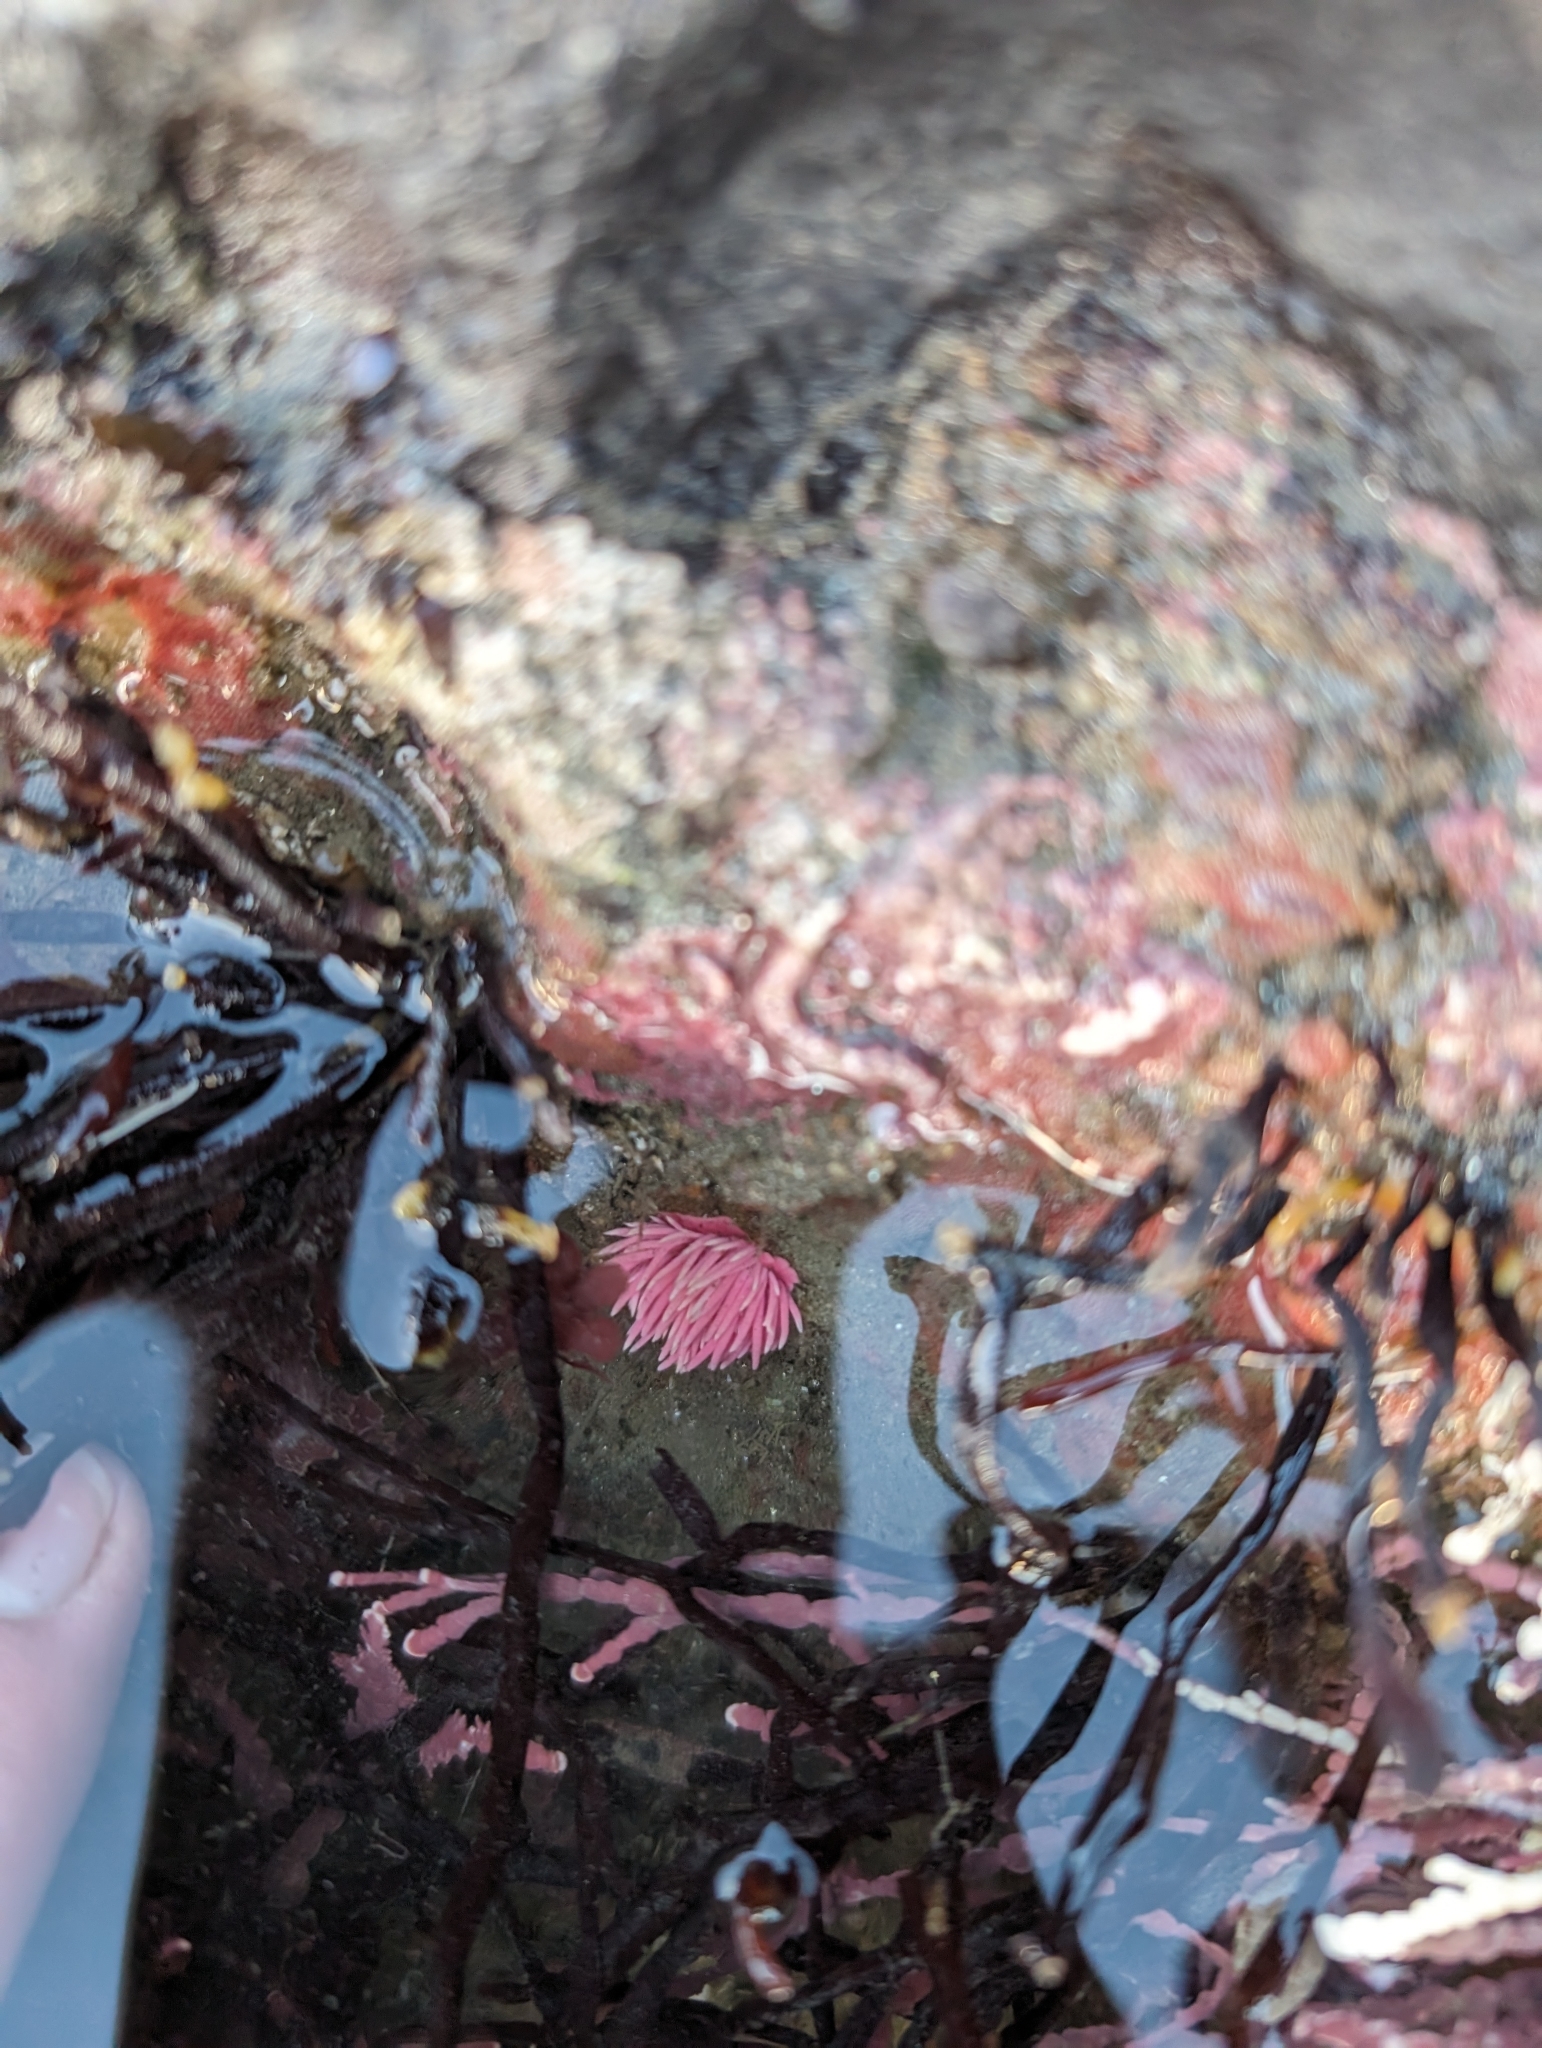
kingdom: Animalia
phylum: Mollusca
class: Gastropoda
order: Nudibranchia
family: Goniodorididae
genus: Okenia
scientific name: Okenia
